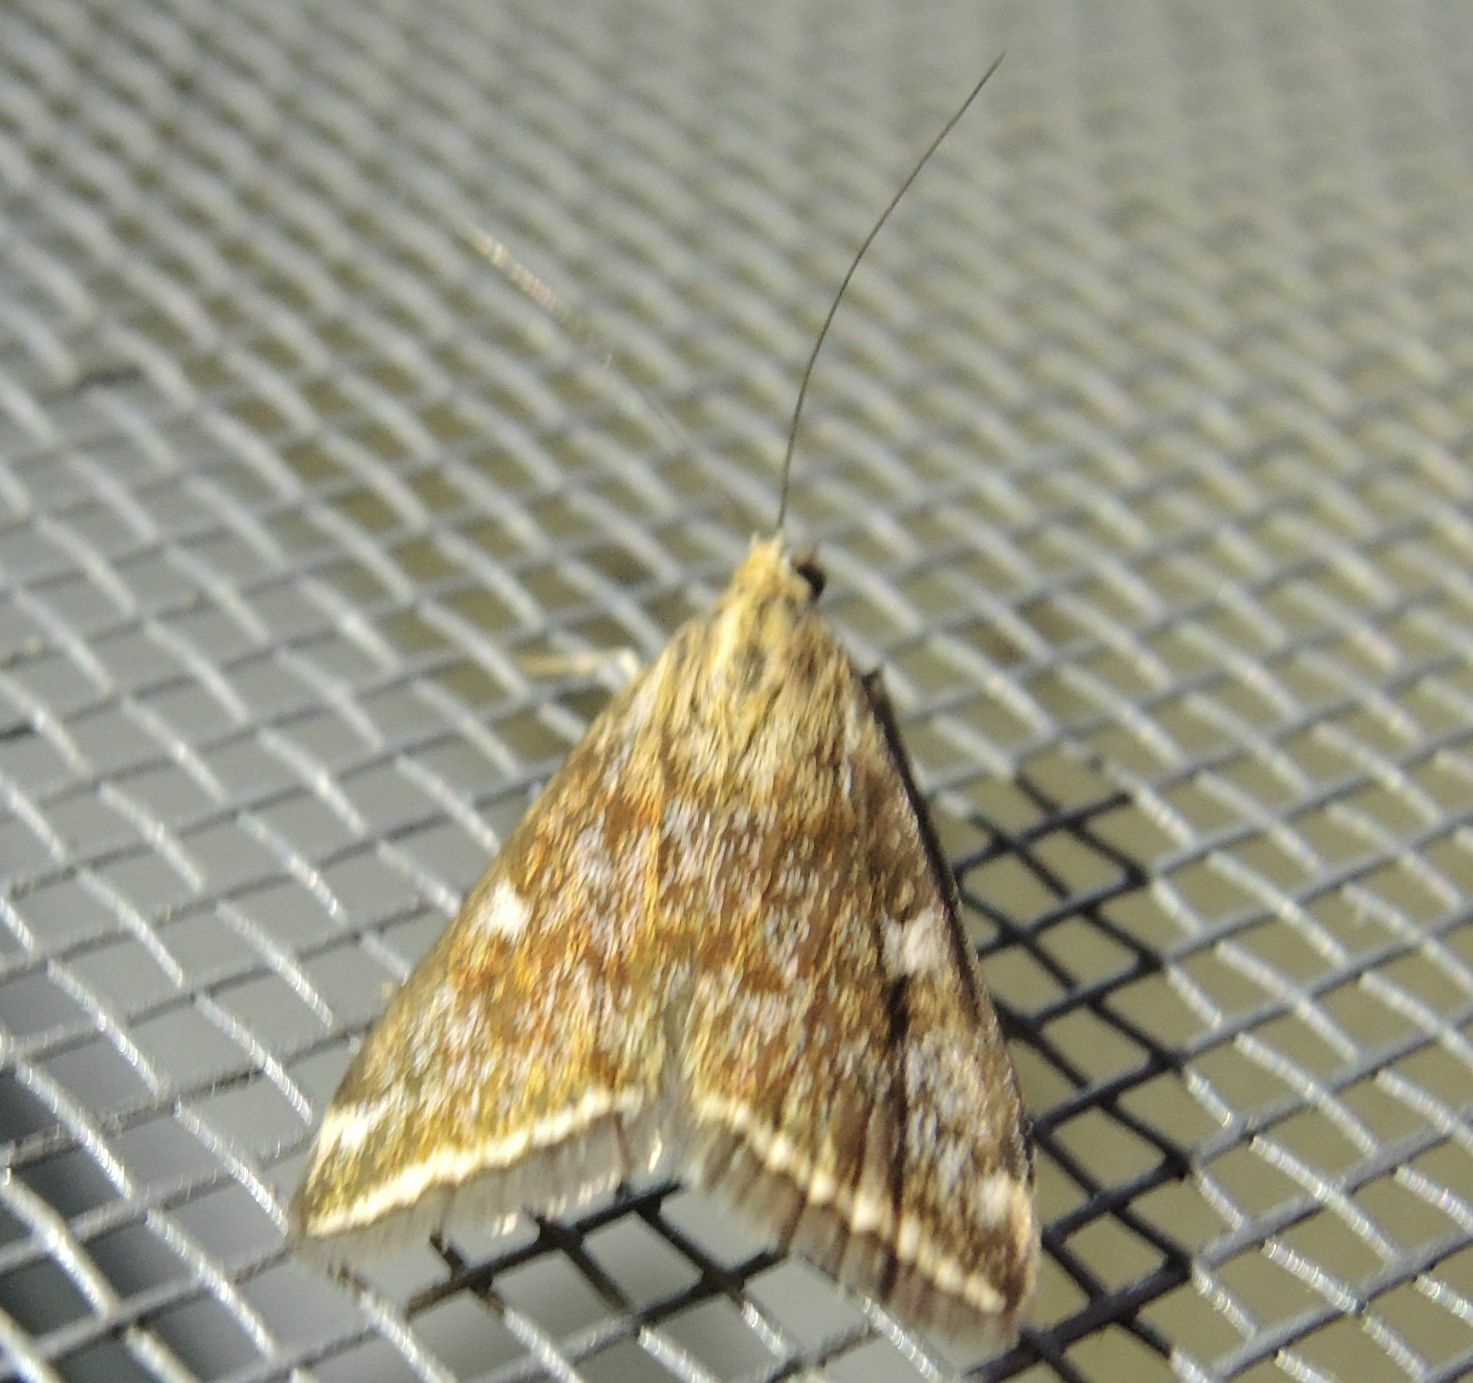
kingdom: Animalia
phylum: Arthropoda
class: Insecta
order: Lepidoptera
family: Crambidae
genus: Loxostege
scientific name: Loxostege sticticalis
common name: Crambid moth
